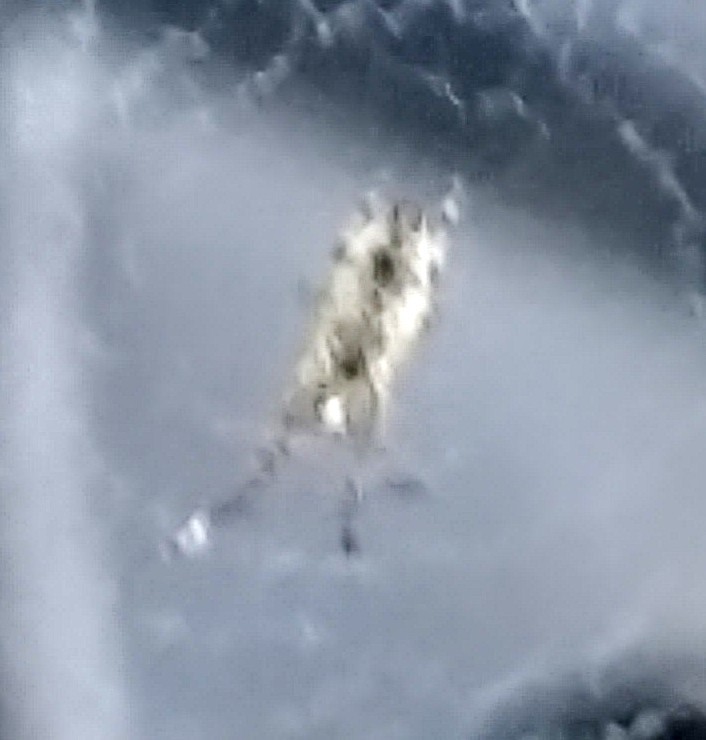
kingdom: Animalia
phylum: Arthropoda
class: Arachnida
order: Araneae
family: Uloboridae
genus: Uloborus
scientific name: Uloborus glomosus
